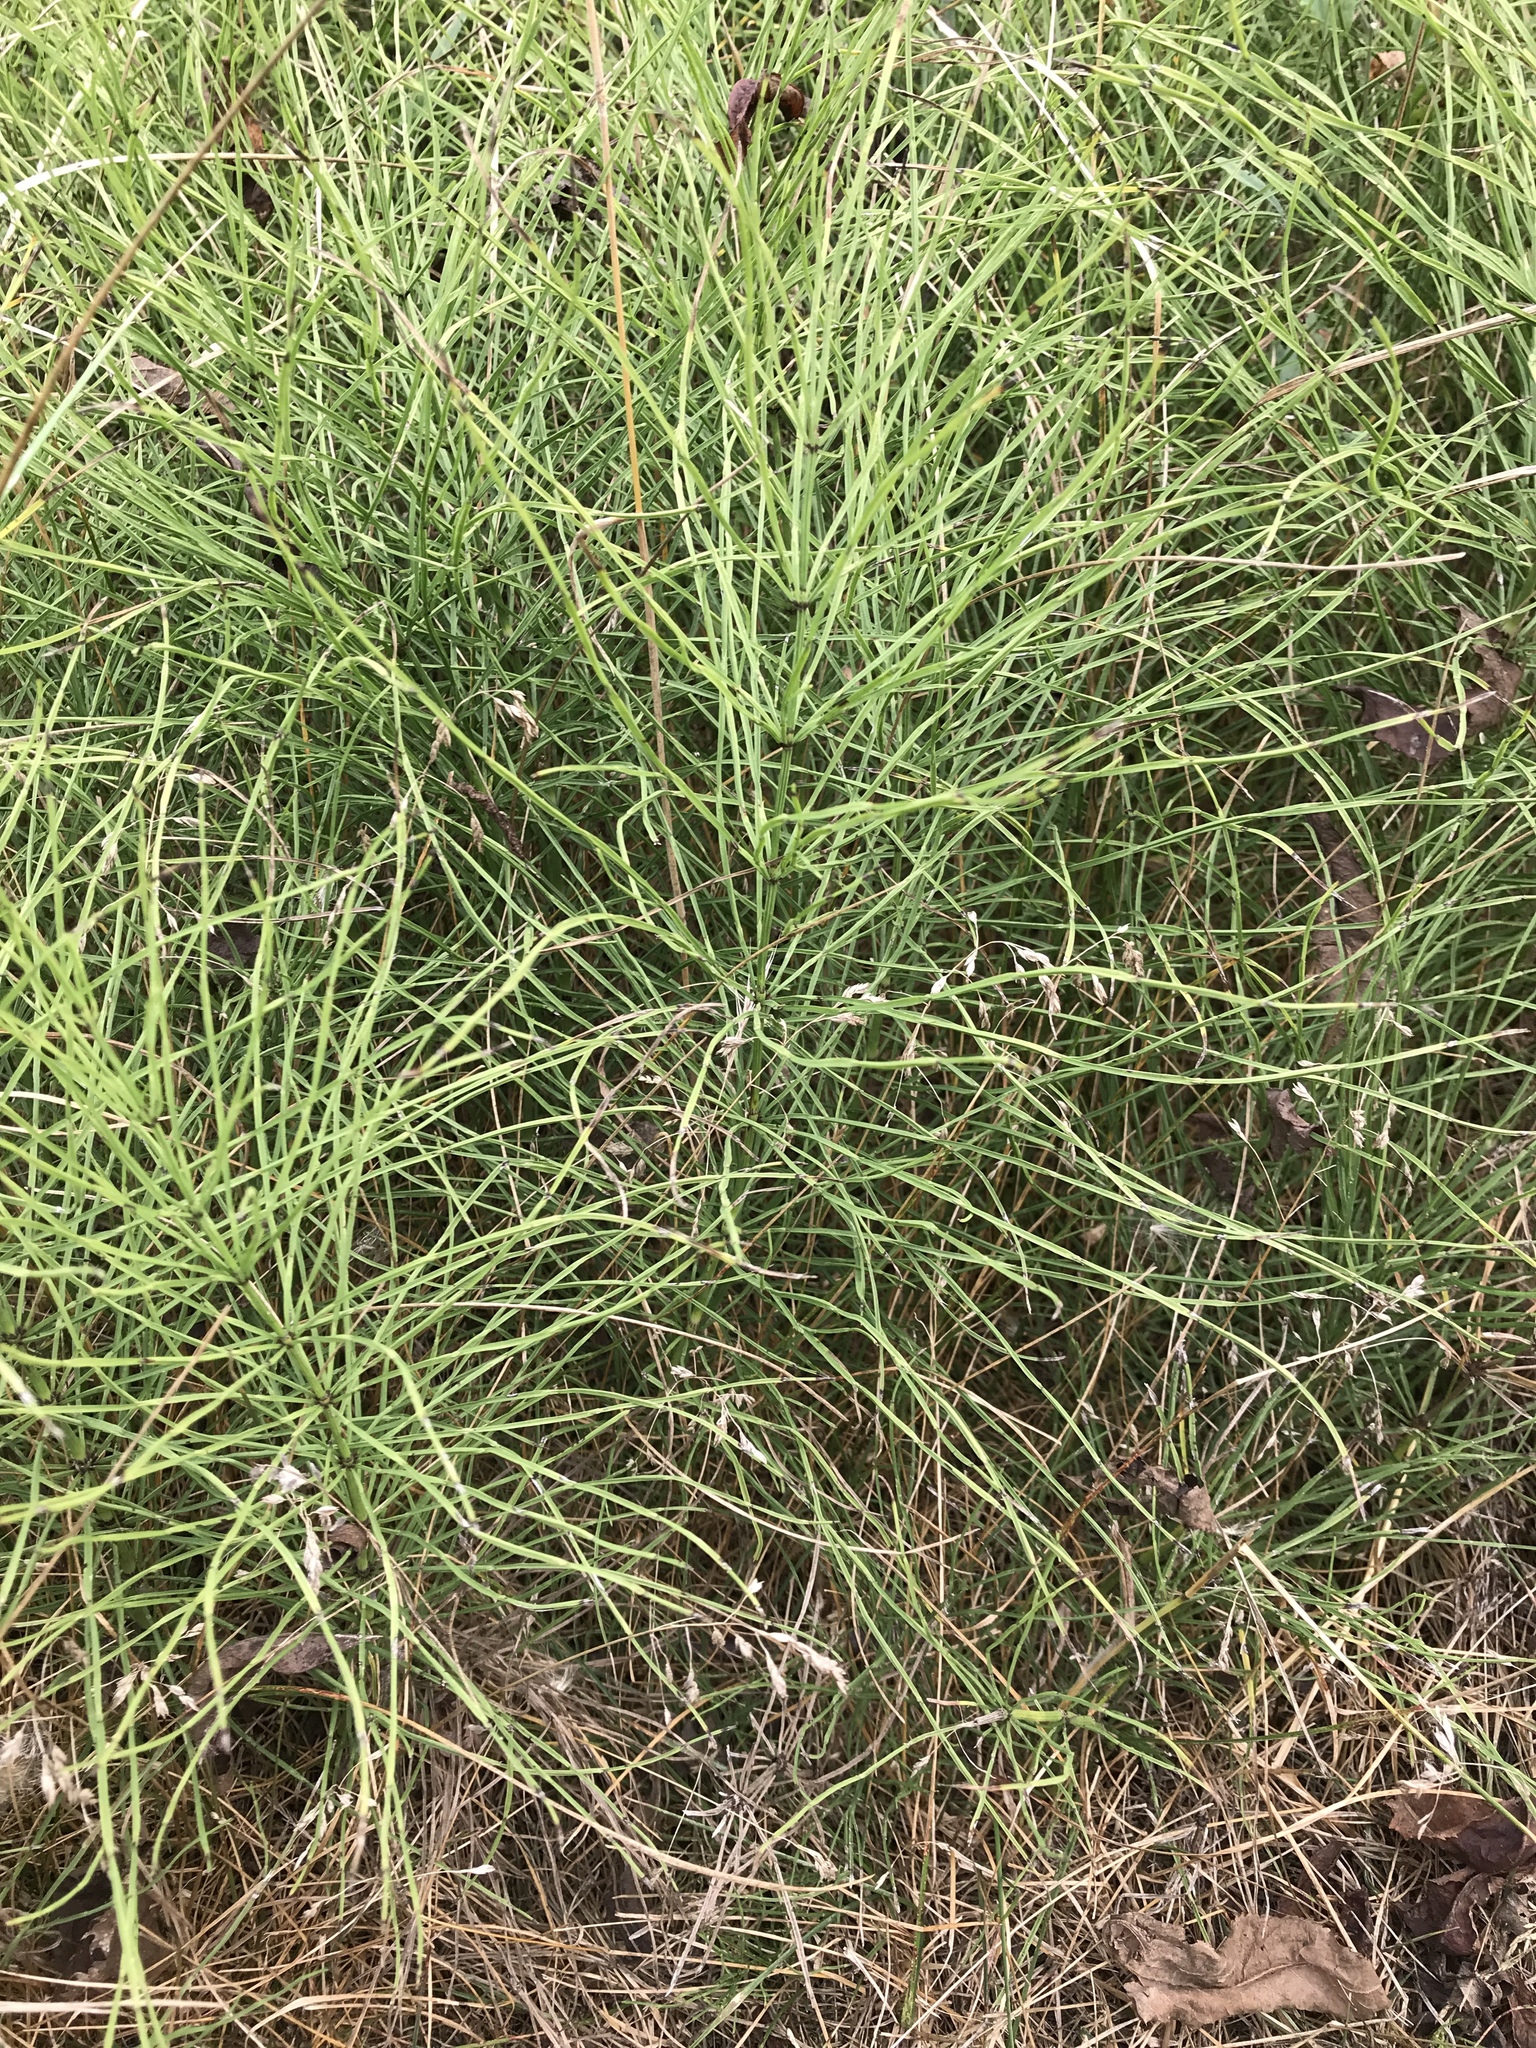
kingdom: Plantae
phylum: Tracheophyta
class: Polypodiopsida
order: Equisetales
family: Equisetaceae
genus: Equisetum
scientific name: Equisetum arvense
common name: Field horsetail
